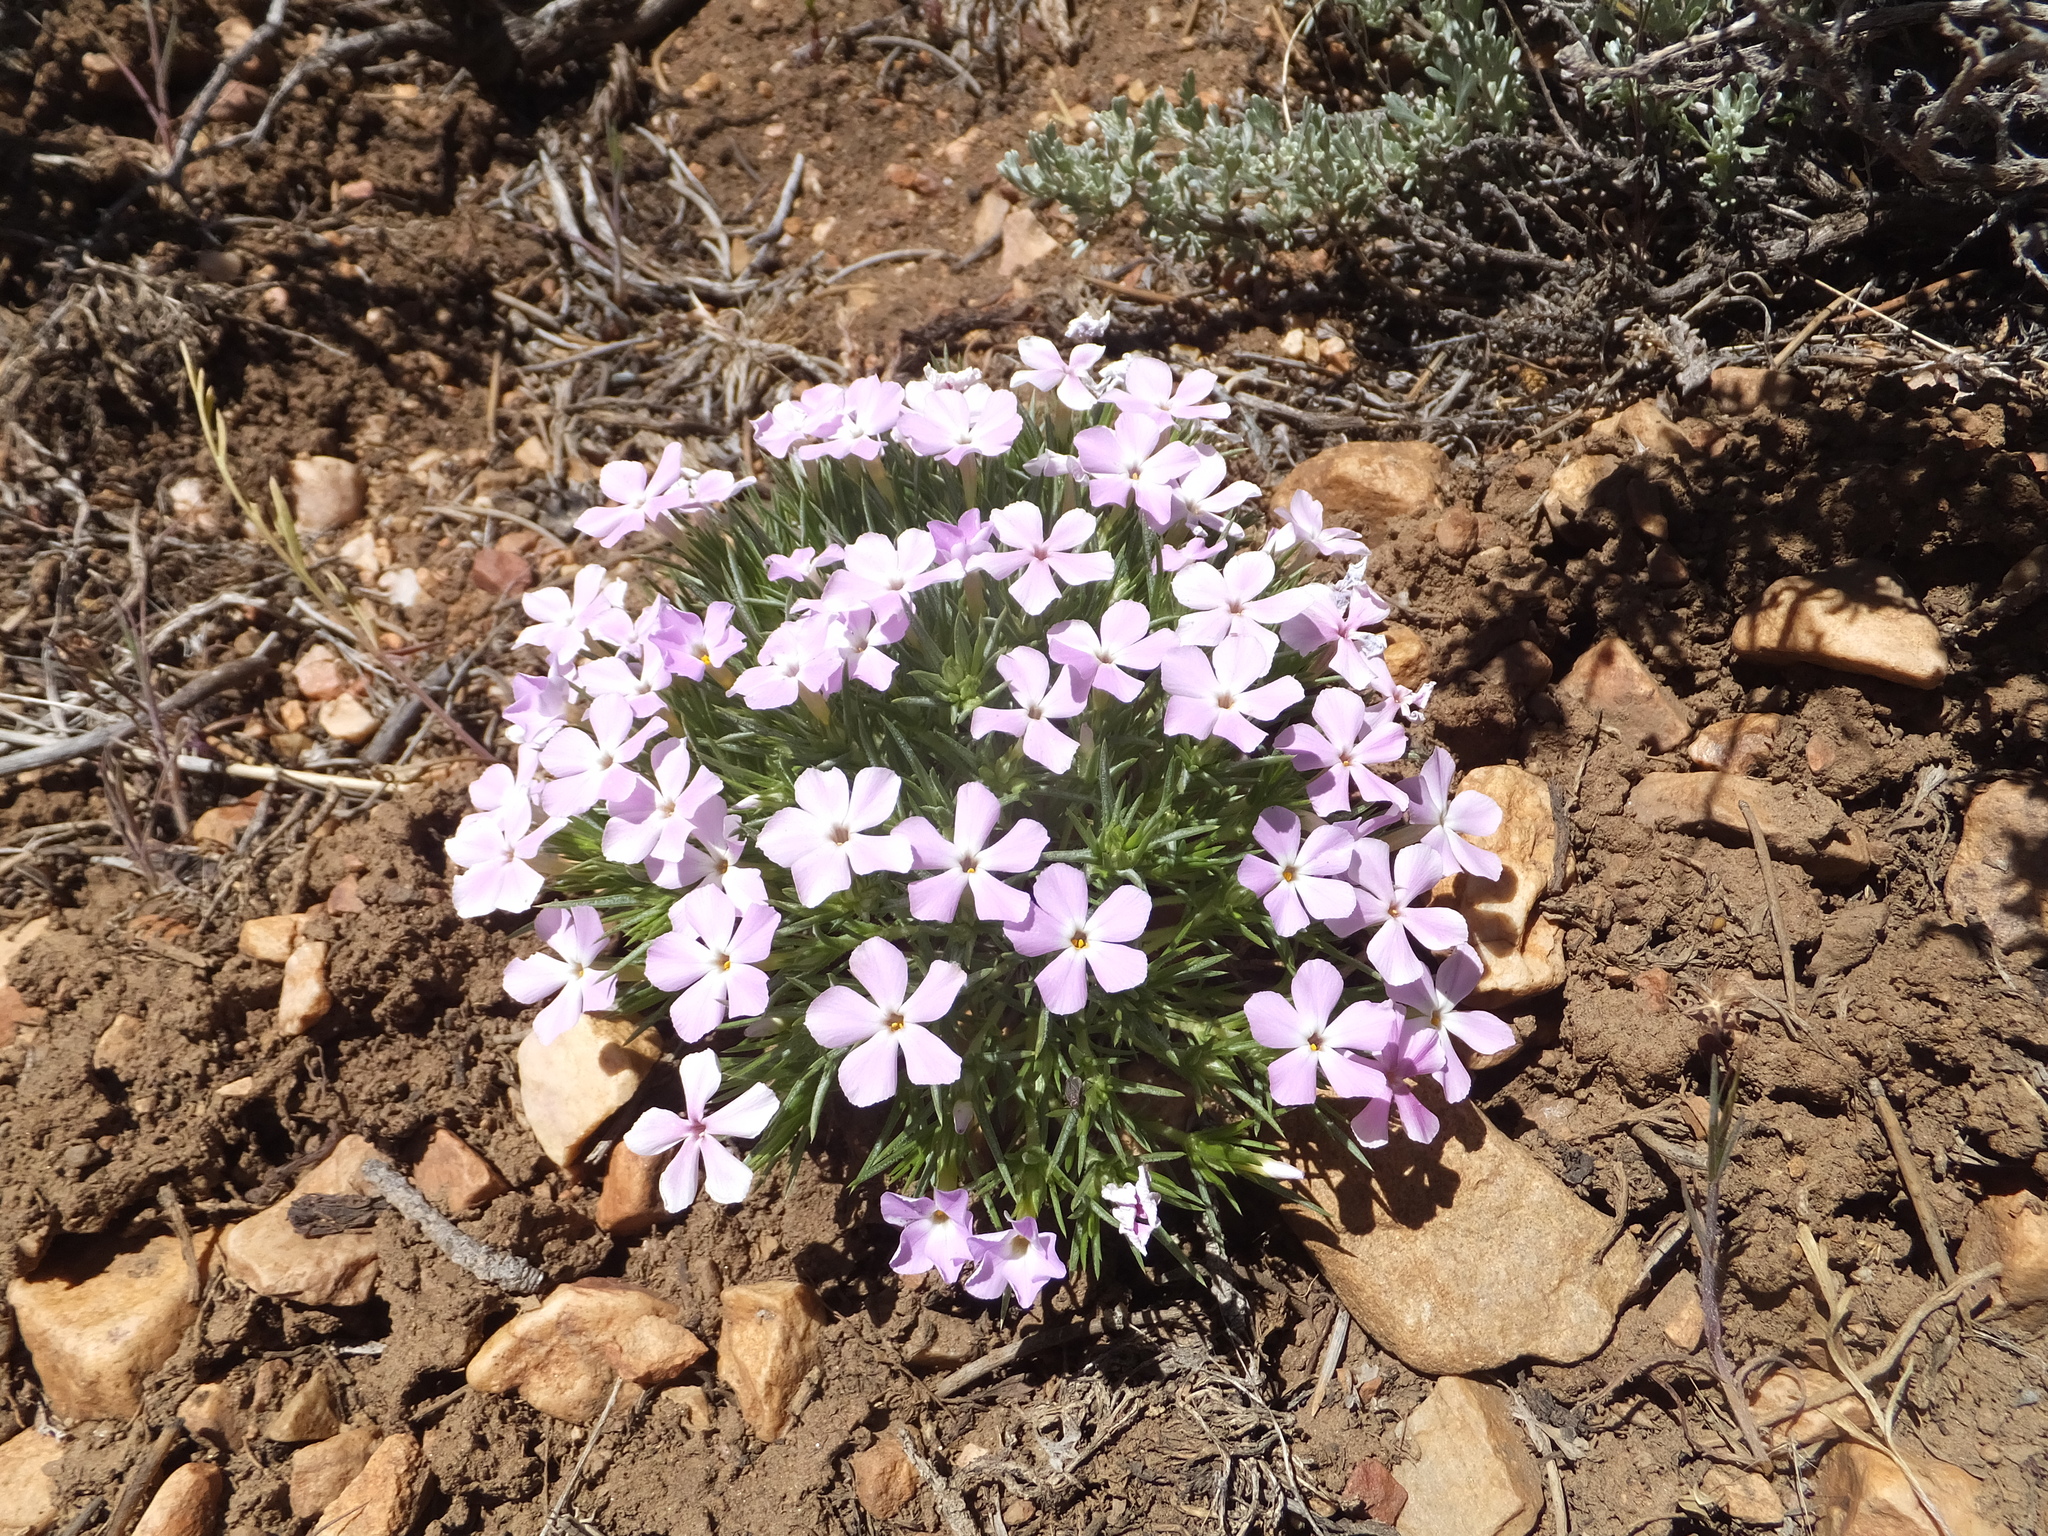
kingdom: Plantae
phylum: Tracheophyta
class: Magnoliopsida
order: Ericales
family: Polemoniaceae
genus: Phlox
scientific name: Phlox austromontana
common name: Desert phlox
